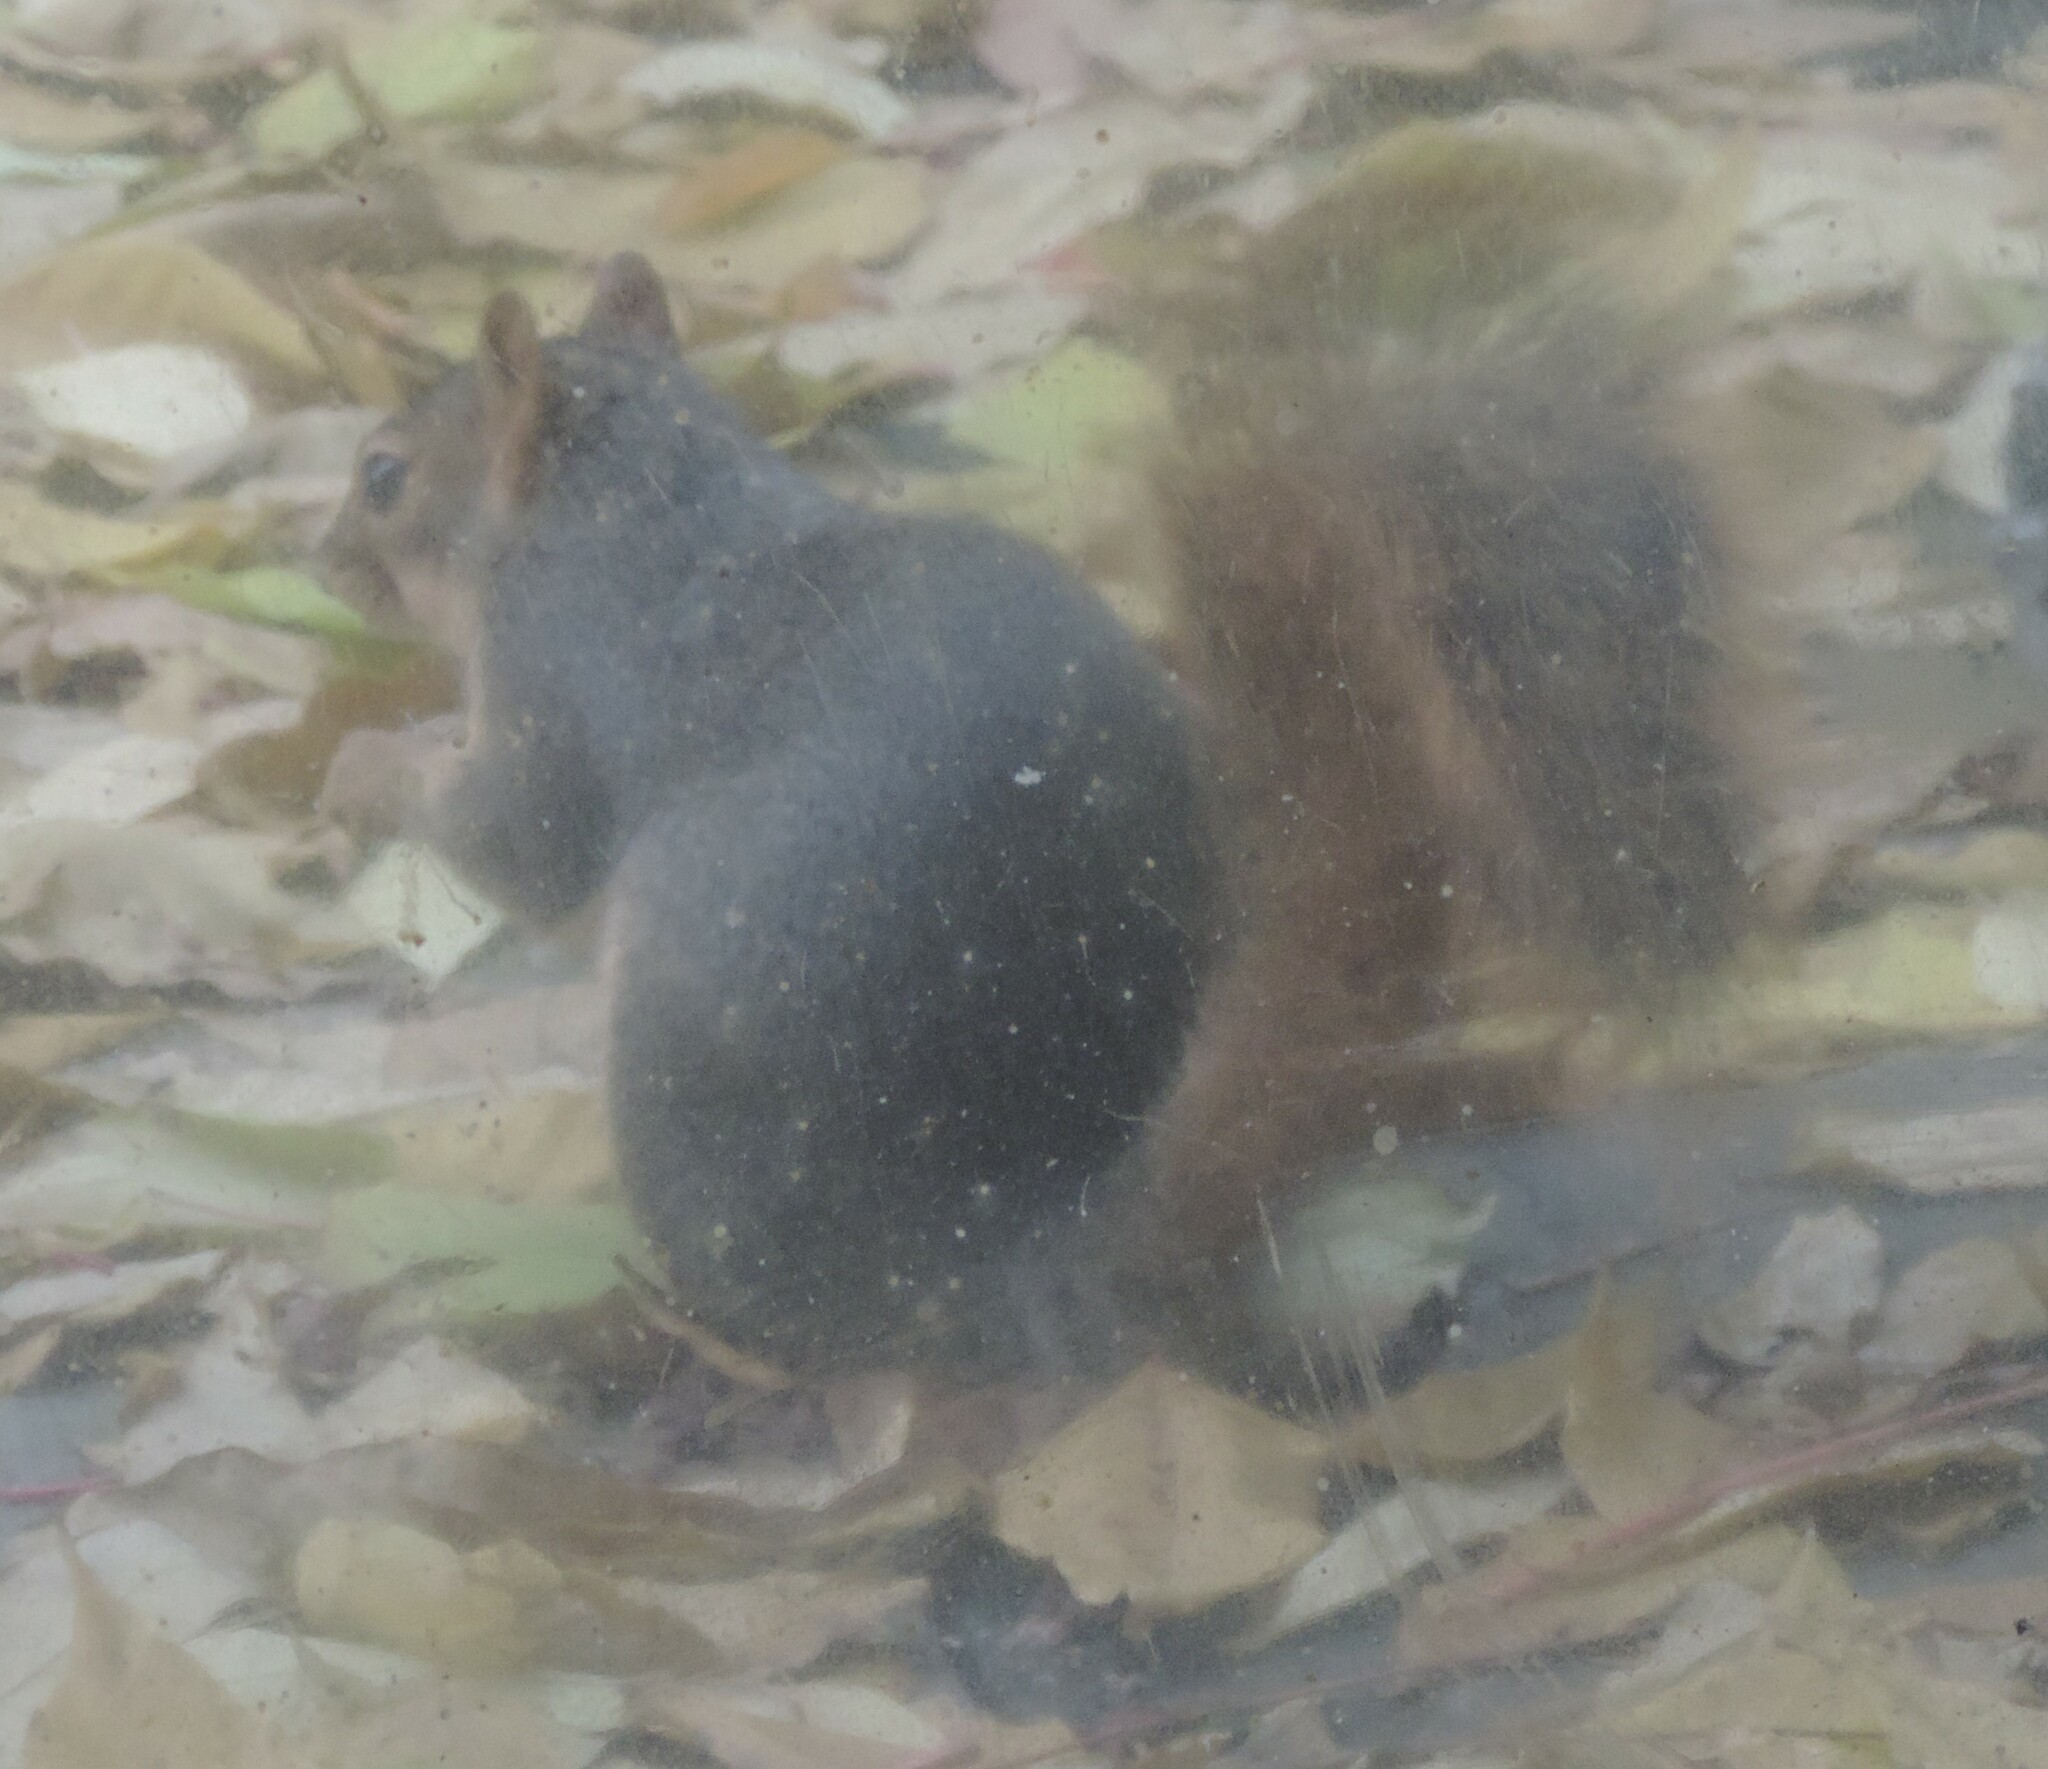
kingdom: Animalia
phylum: Chordata
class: Mammalia
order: Rodentia
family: Sciuridae
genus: Sciurus
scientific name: Sciurus niger
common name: Fox squirrel
